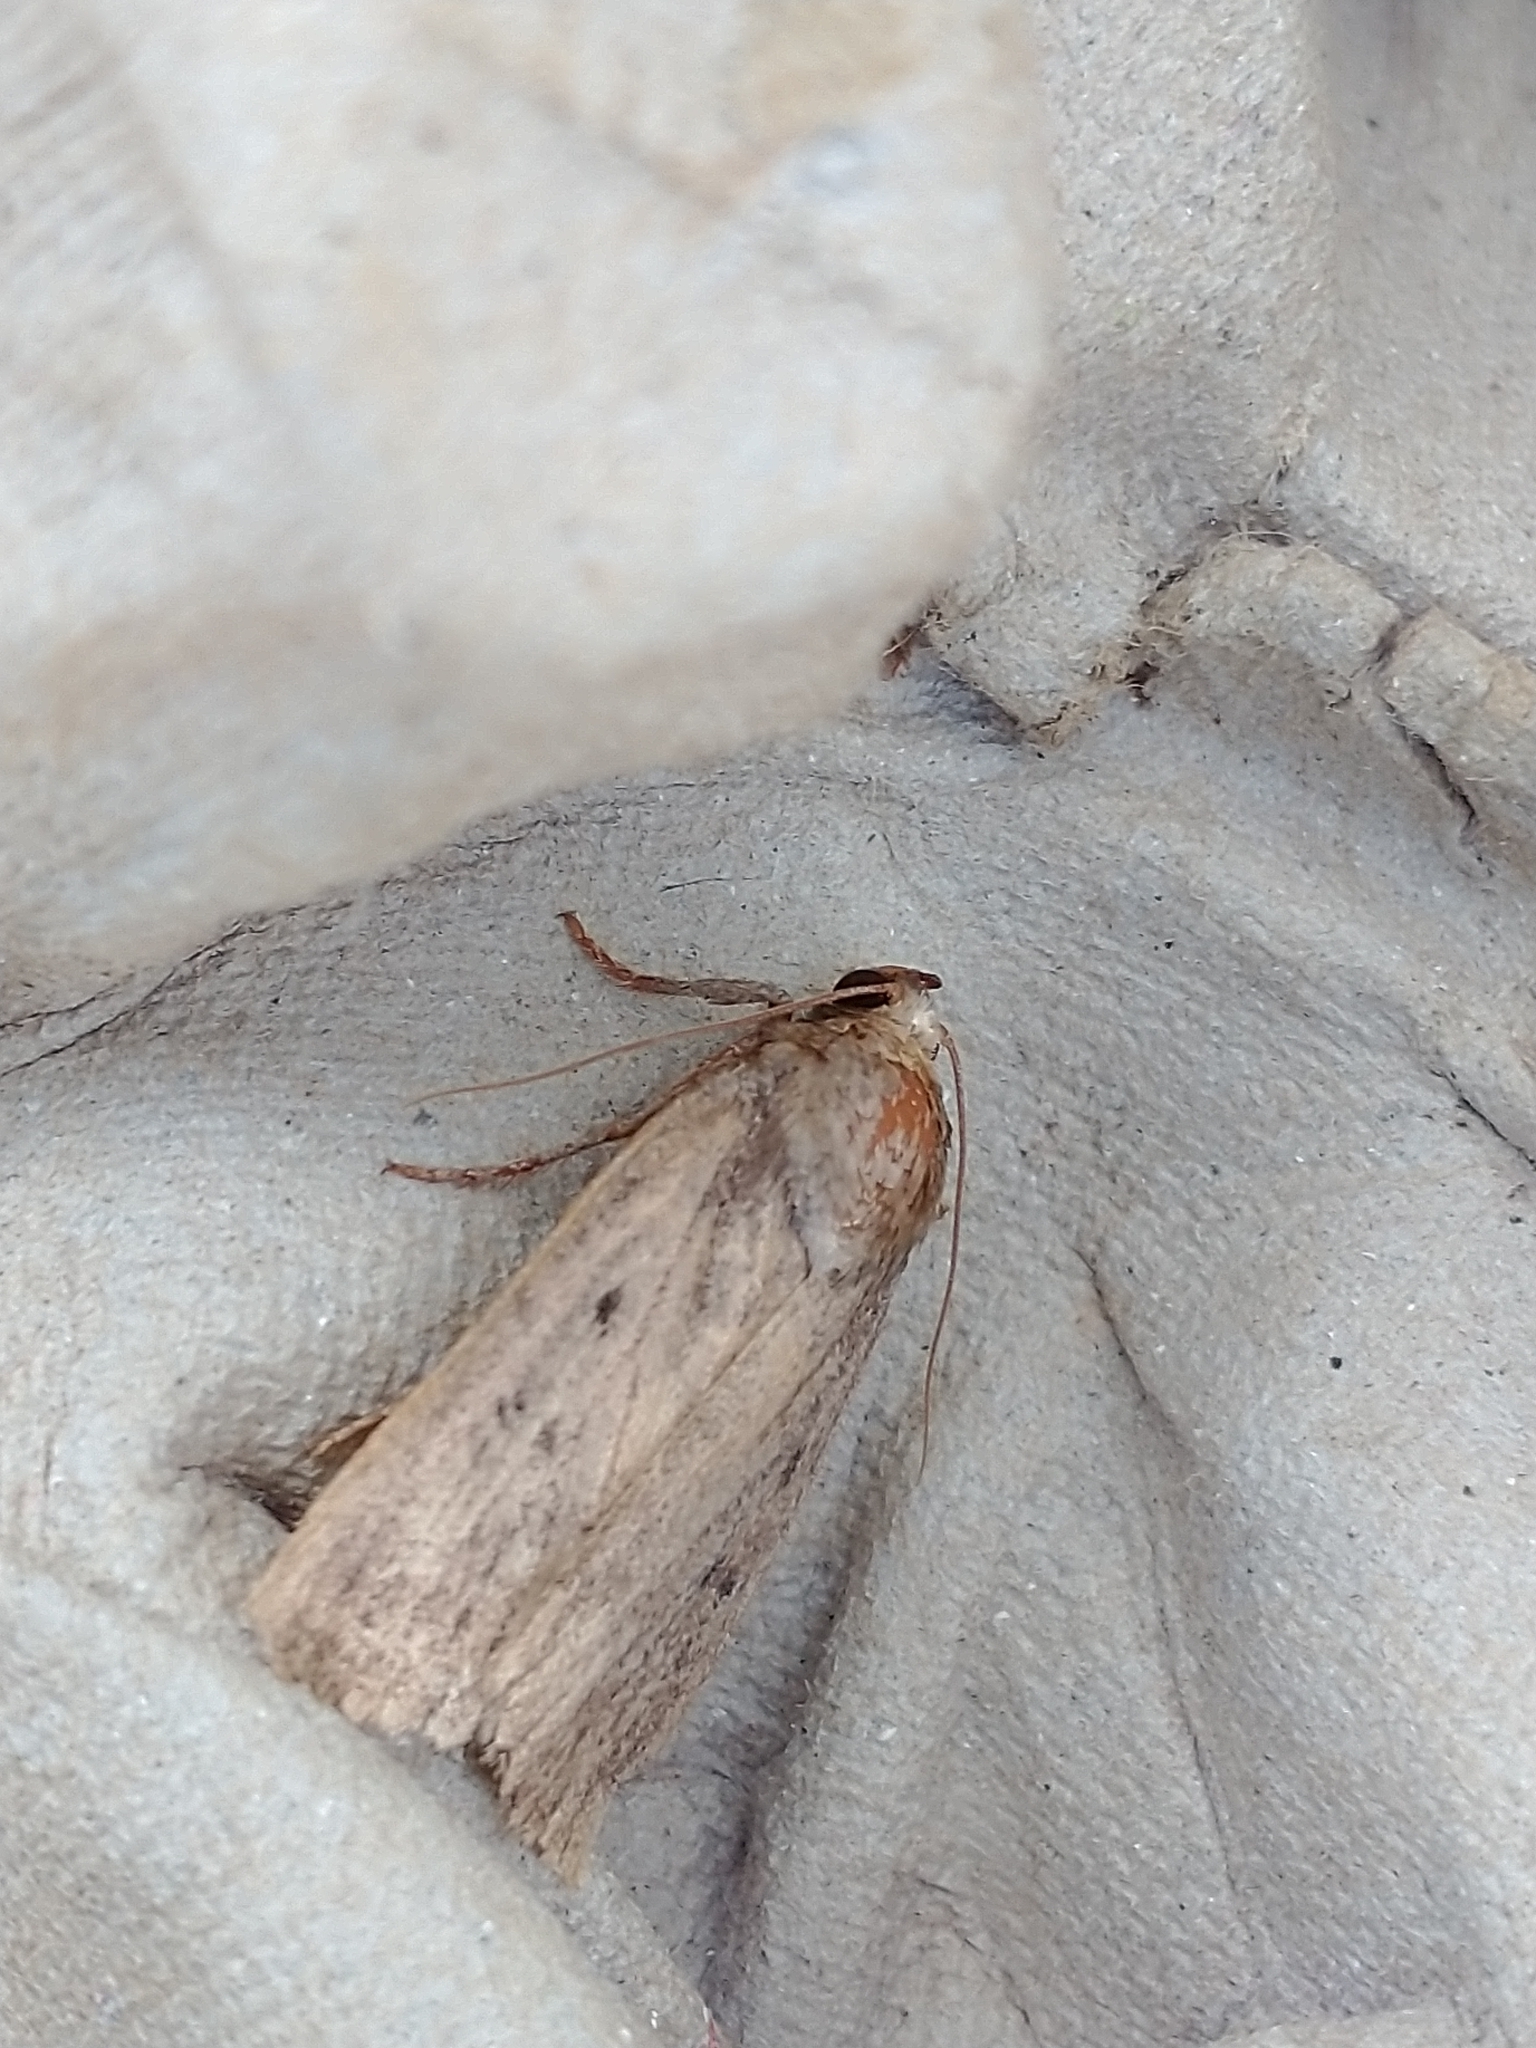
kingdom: Animalia
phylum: Arthropoda
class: Insecta
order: Lepidoptera
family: Noctuidae
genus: Amphipyra
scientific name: Amphipyra tragopoginis
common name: Mouse moth
